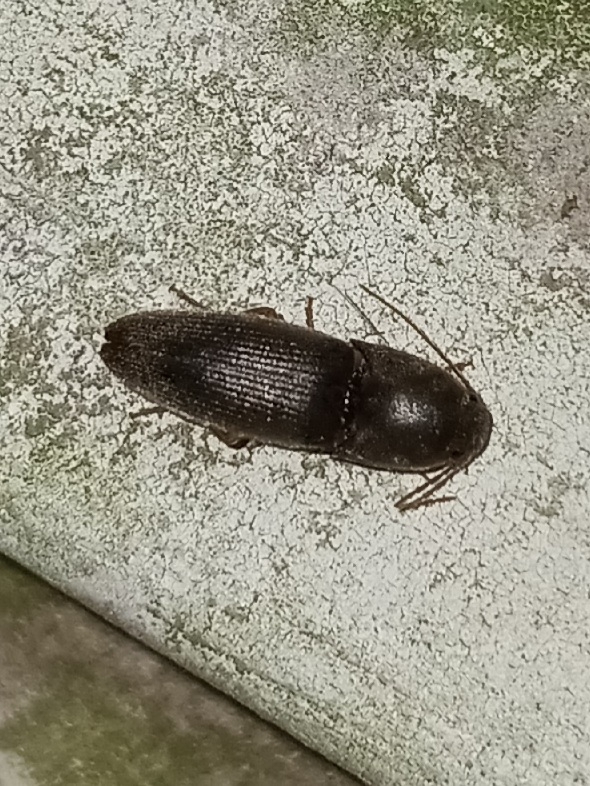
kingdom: Animalia
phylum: Arthropoda
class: Insecta
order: Coleoptera
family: Elateridae
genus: Conoderus
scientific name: Conoderus exsul
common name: Click beetle
